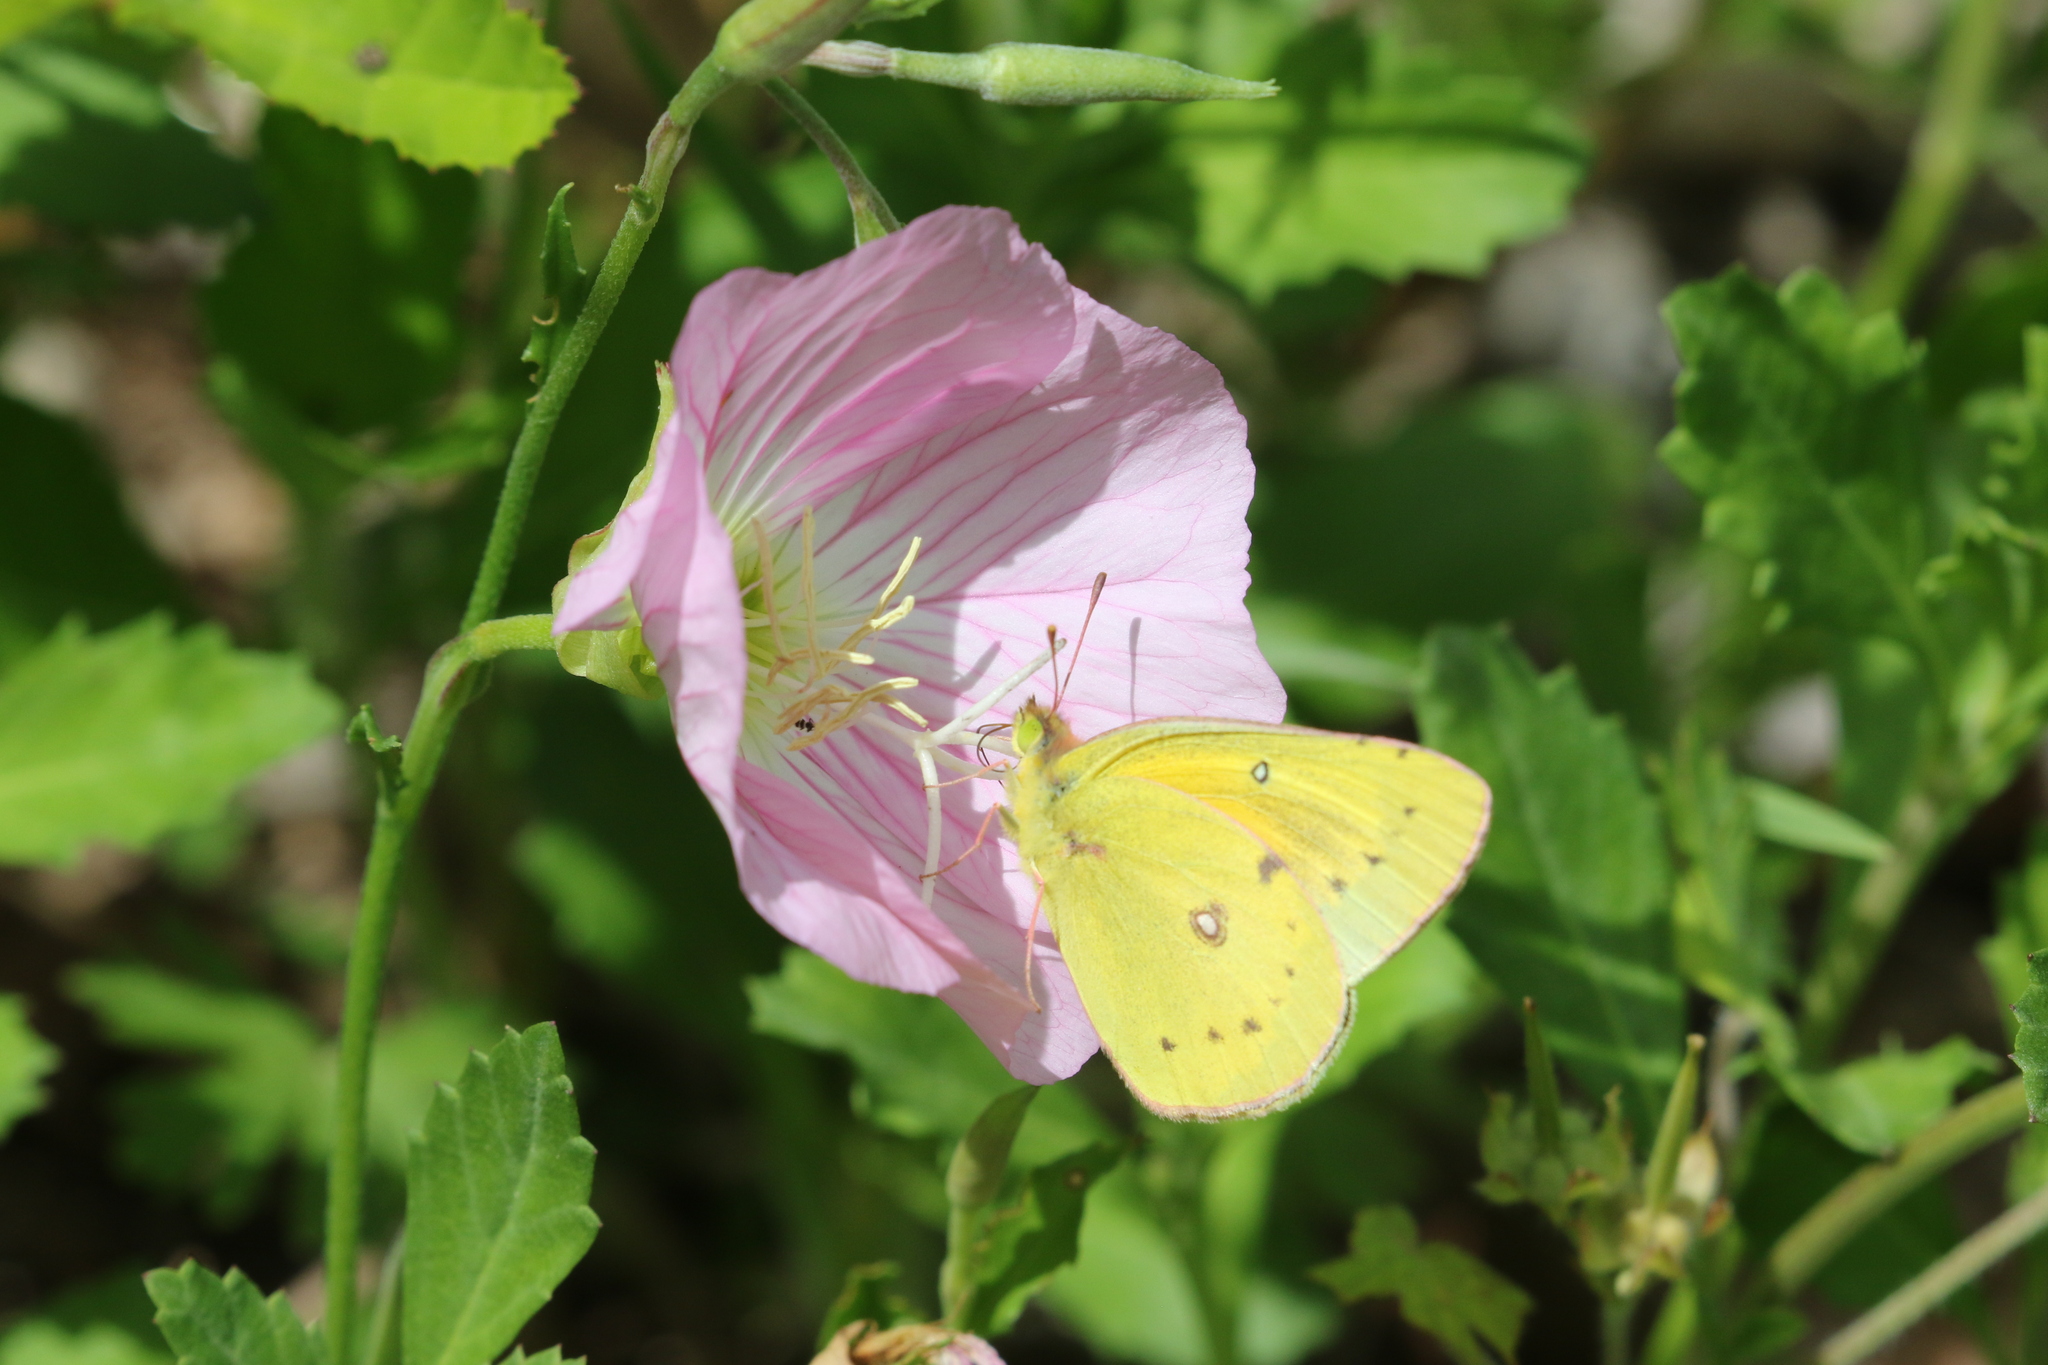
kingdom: Animalia
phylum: Arthropoda
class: Insecta
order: Lepidoptera
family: Pieridae
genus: Colias
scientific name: Colias eurytheme
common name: Alfalfa butterfly
